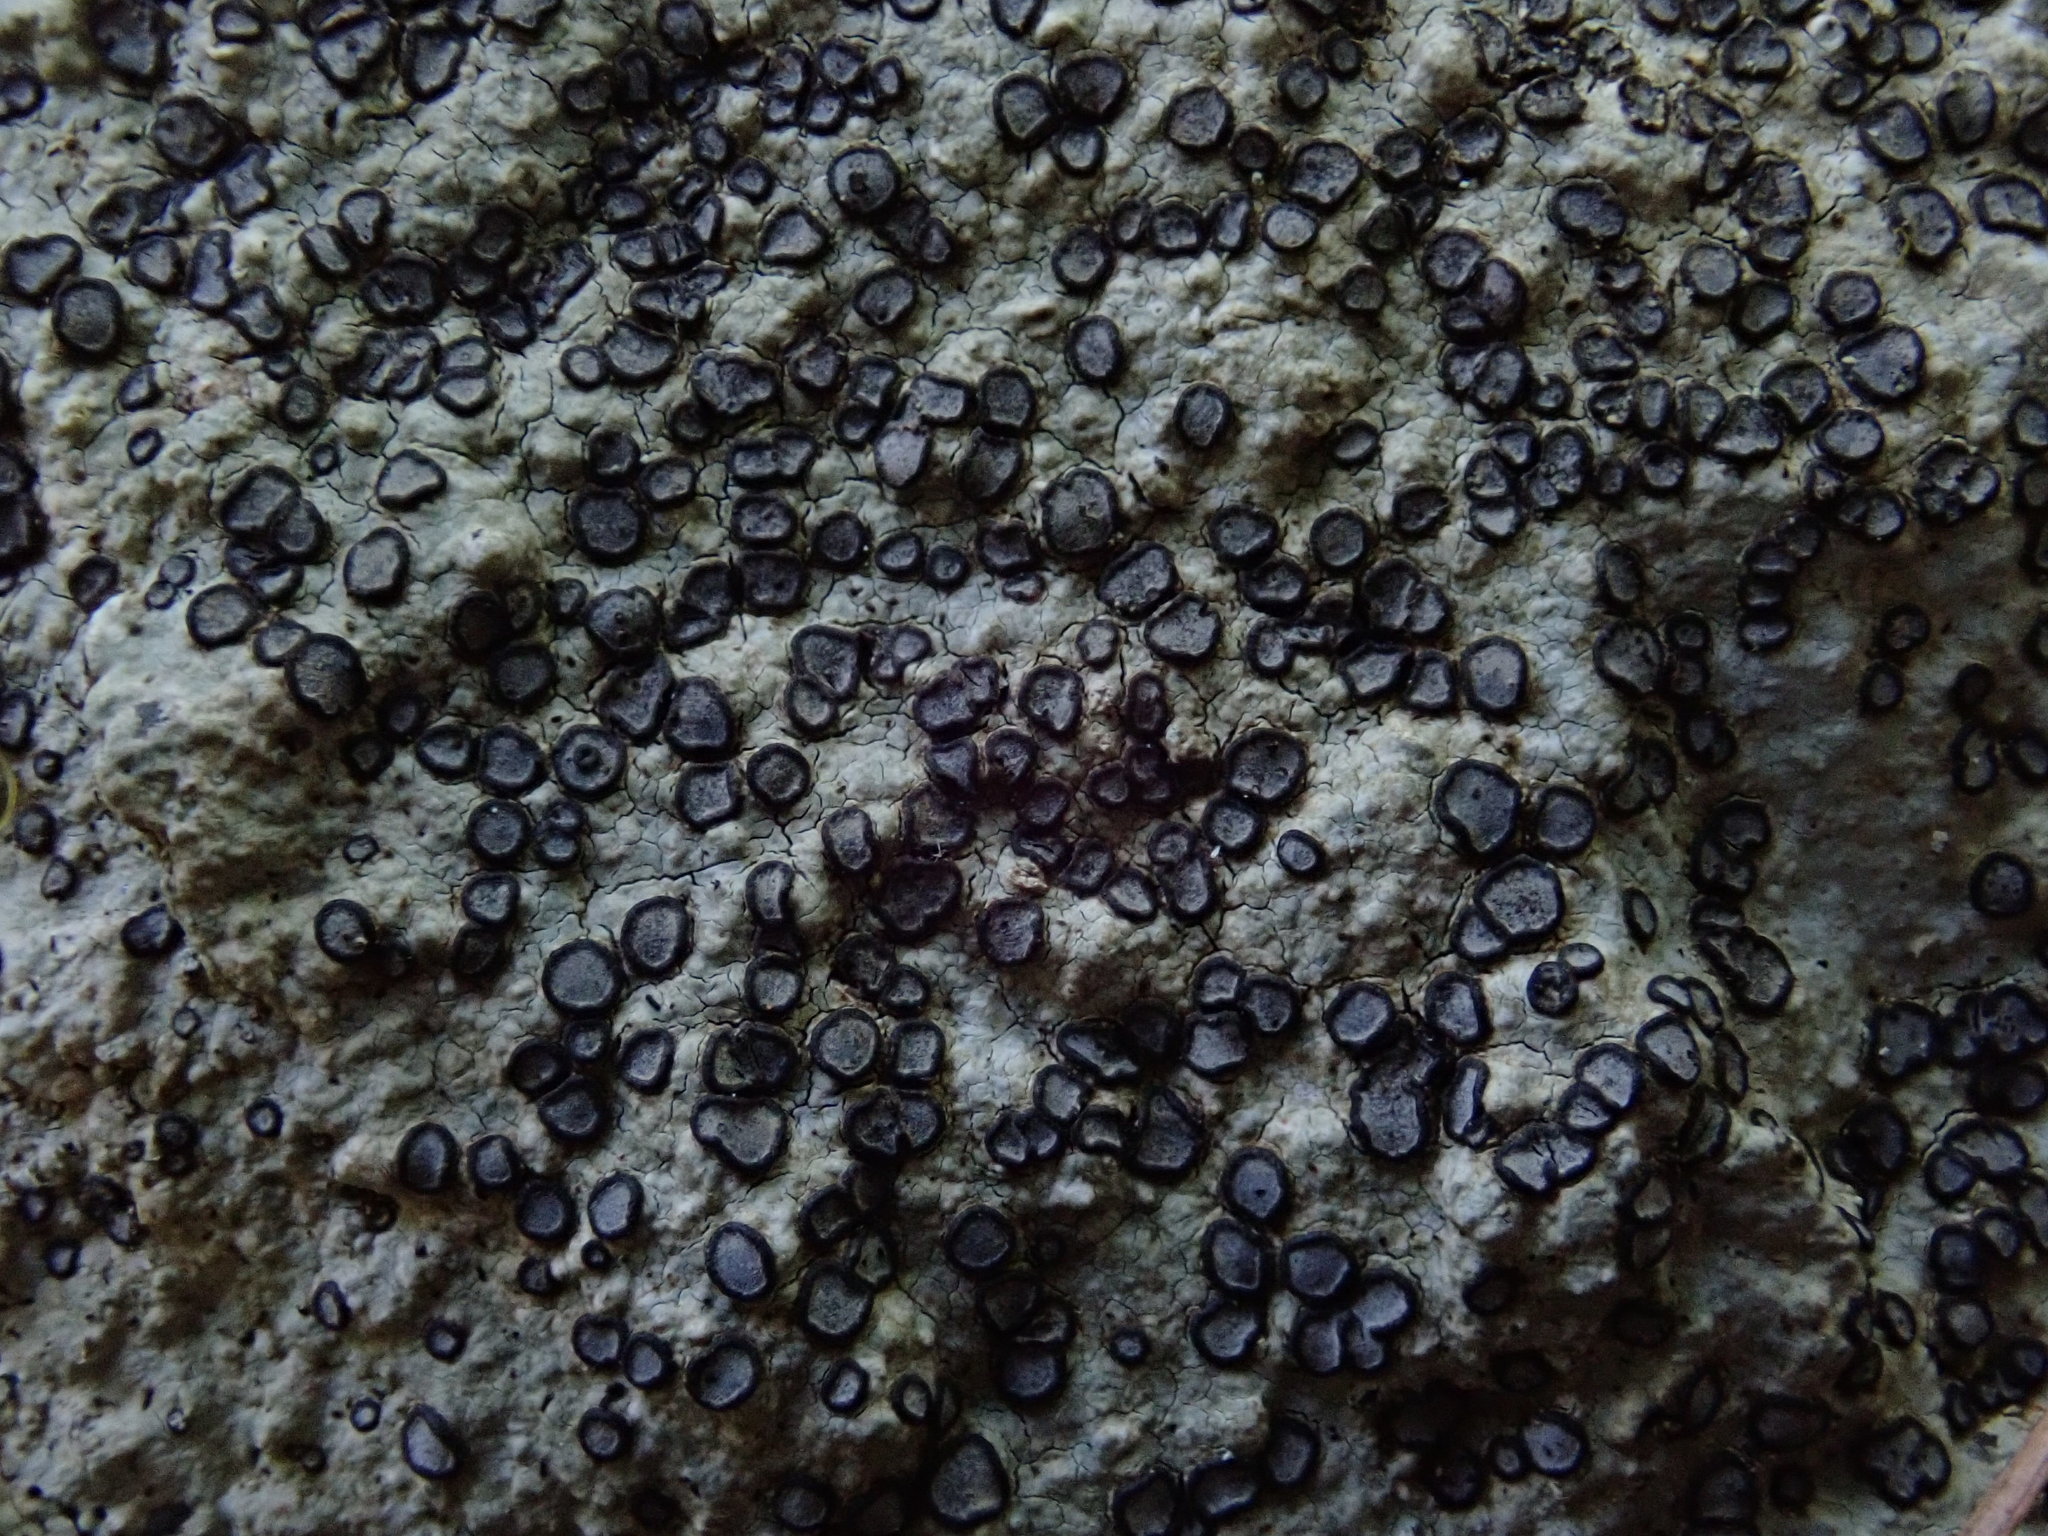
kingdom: Fungi
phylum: Ascomycota
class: Lecanoromycetes
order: Lecideales
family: Lecideaceae
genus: Porpidia
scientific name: Porpidia albocaerulescens
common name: Smokey-eyed boulder lichen
